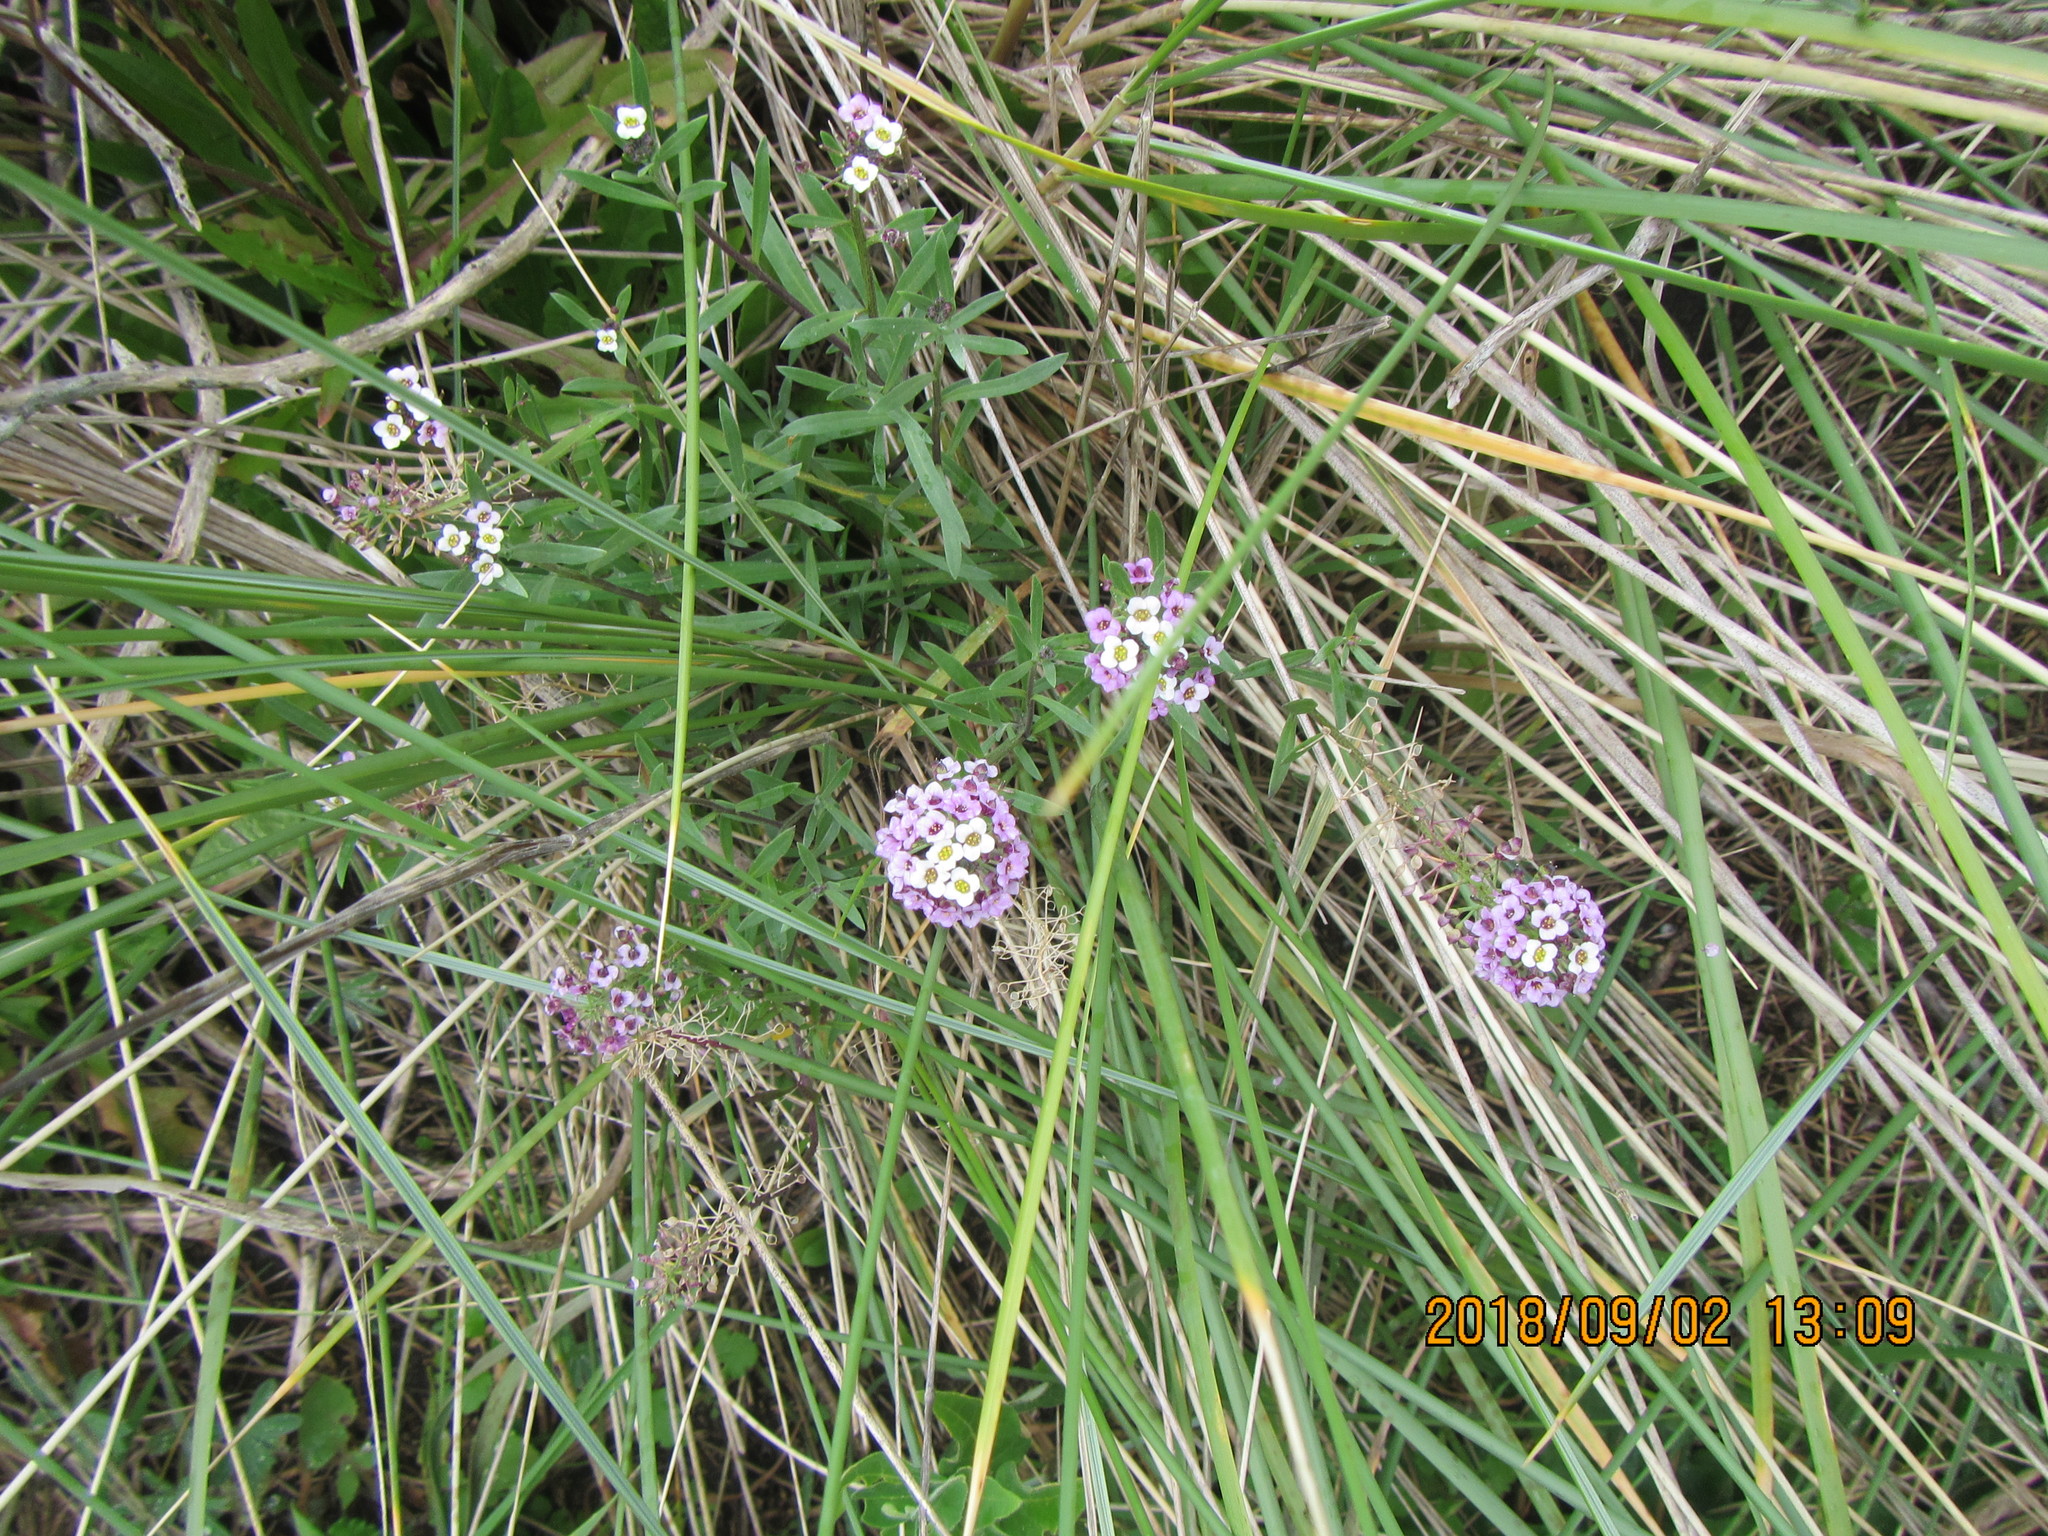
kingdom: Plantae
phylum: Tracheophyta
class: Magnoliopsida
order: Brassicales
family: Brassicaceae
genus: Lobularia
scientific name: Lobularia maritima
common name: Sweet alison
